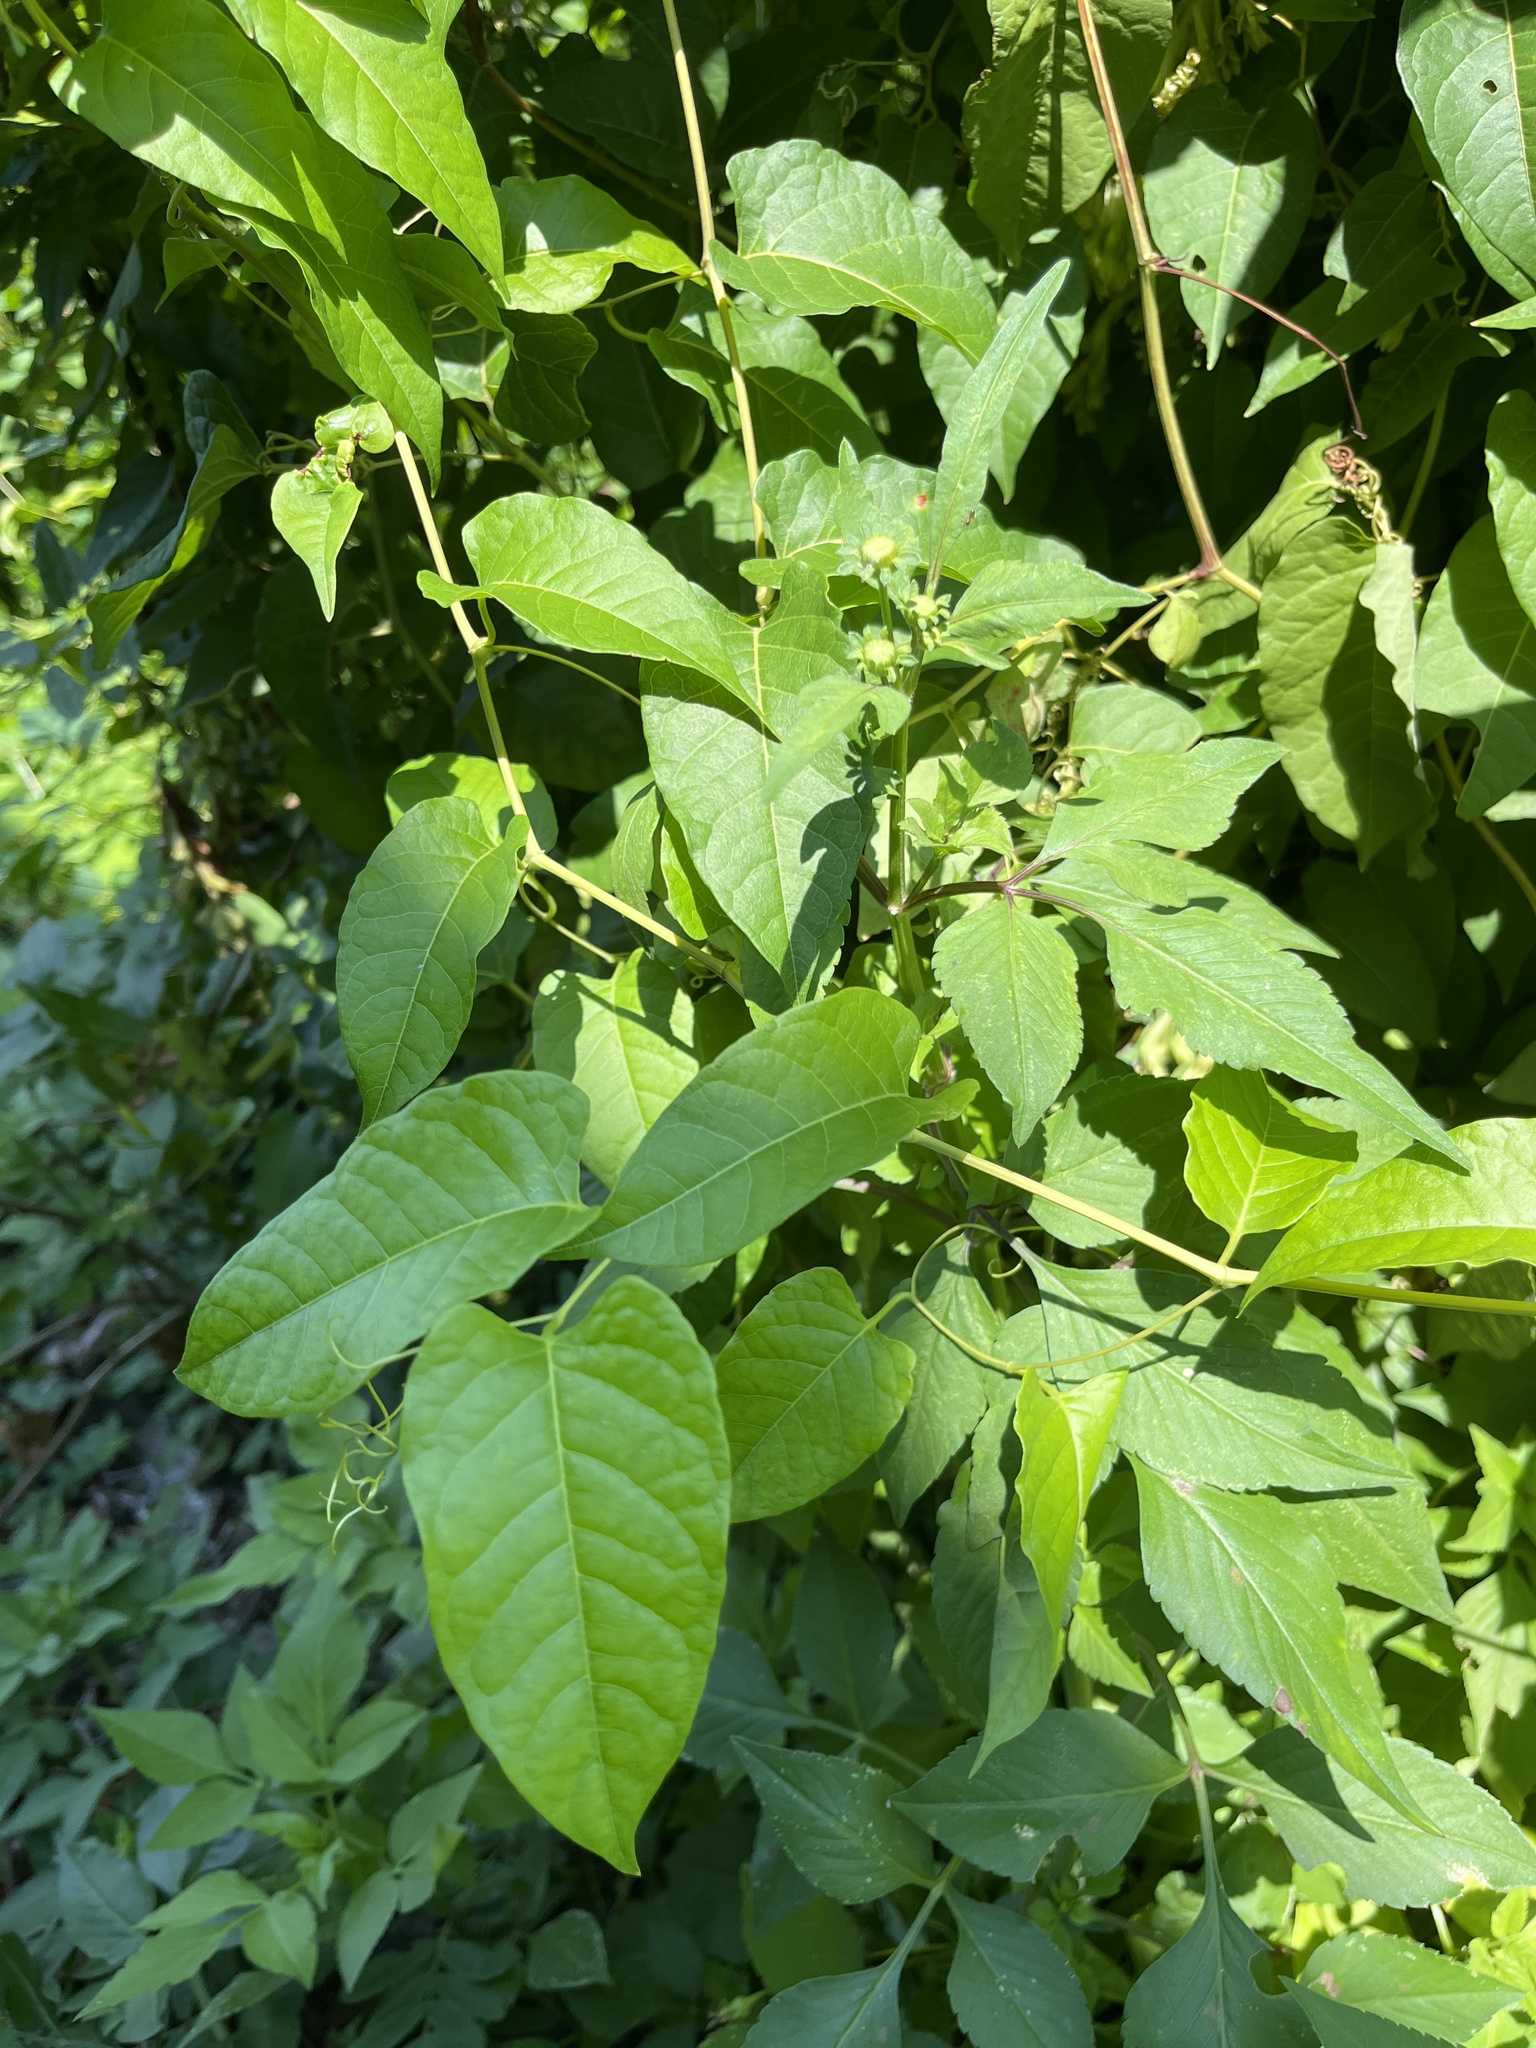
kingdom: Plantae
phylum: Tracheophyta
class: Magnoliopsida
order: Caryophyllales
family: Polygonaceae
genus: Brunnichia
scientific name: Brunnichia ovata
